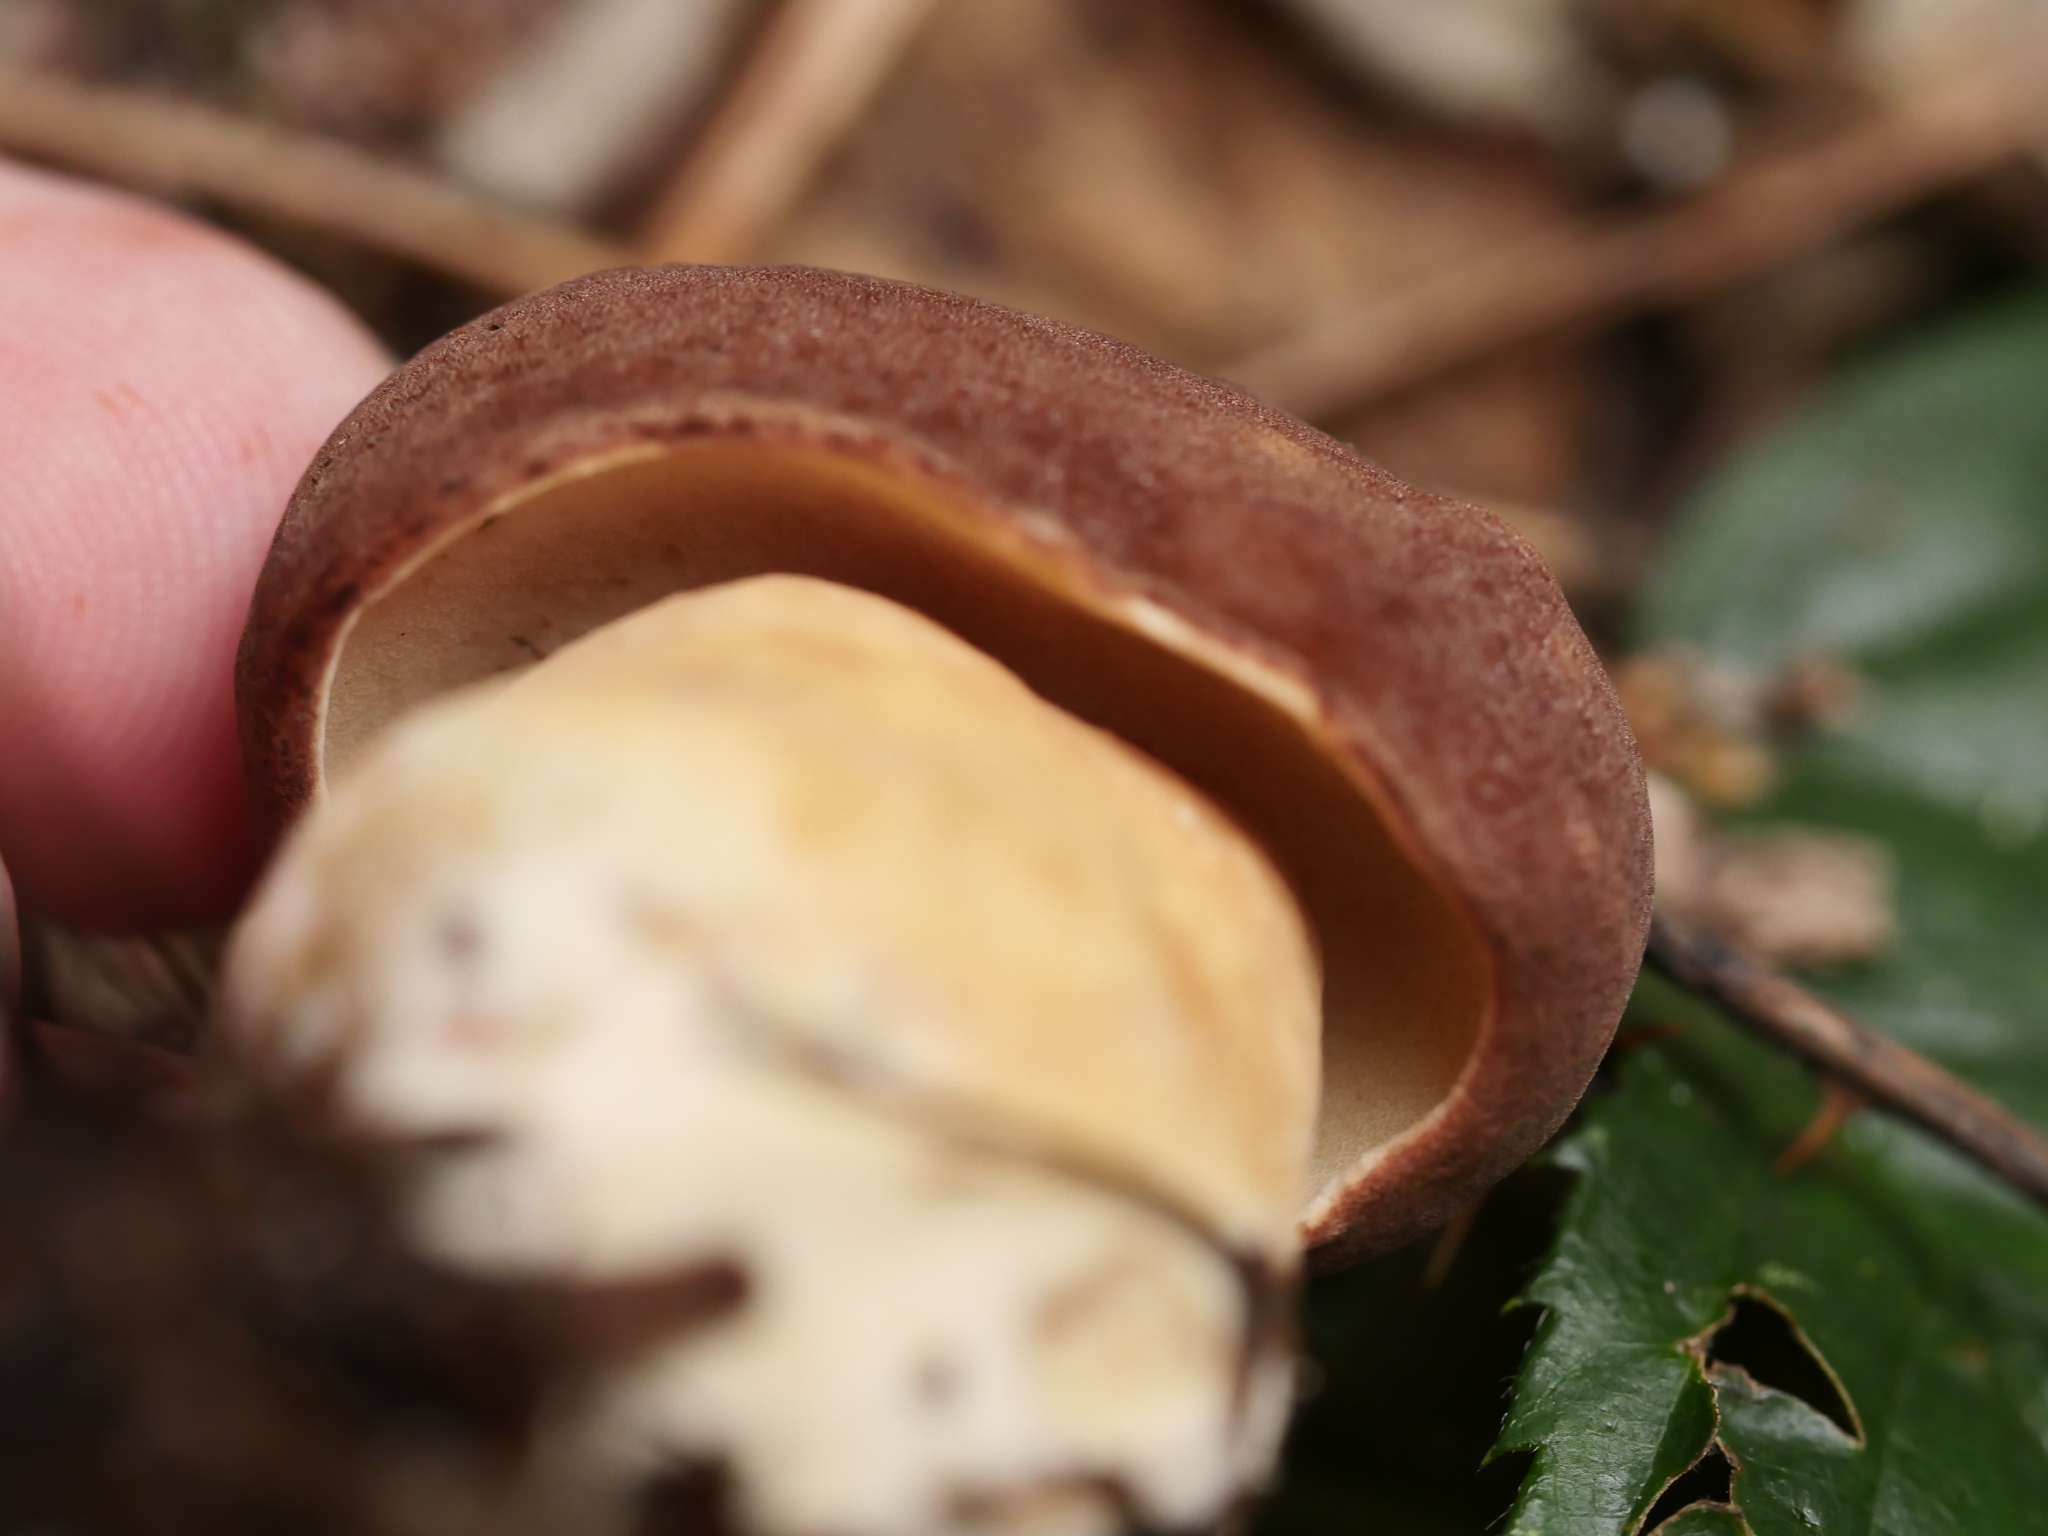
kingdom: Fungi
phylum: Basidiomycota
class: Agaricomycetes
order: Boletales
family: Boletaceae
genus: Imleria
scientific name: Imleria badia
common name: Bay bolete
